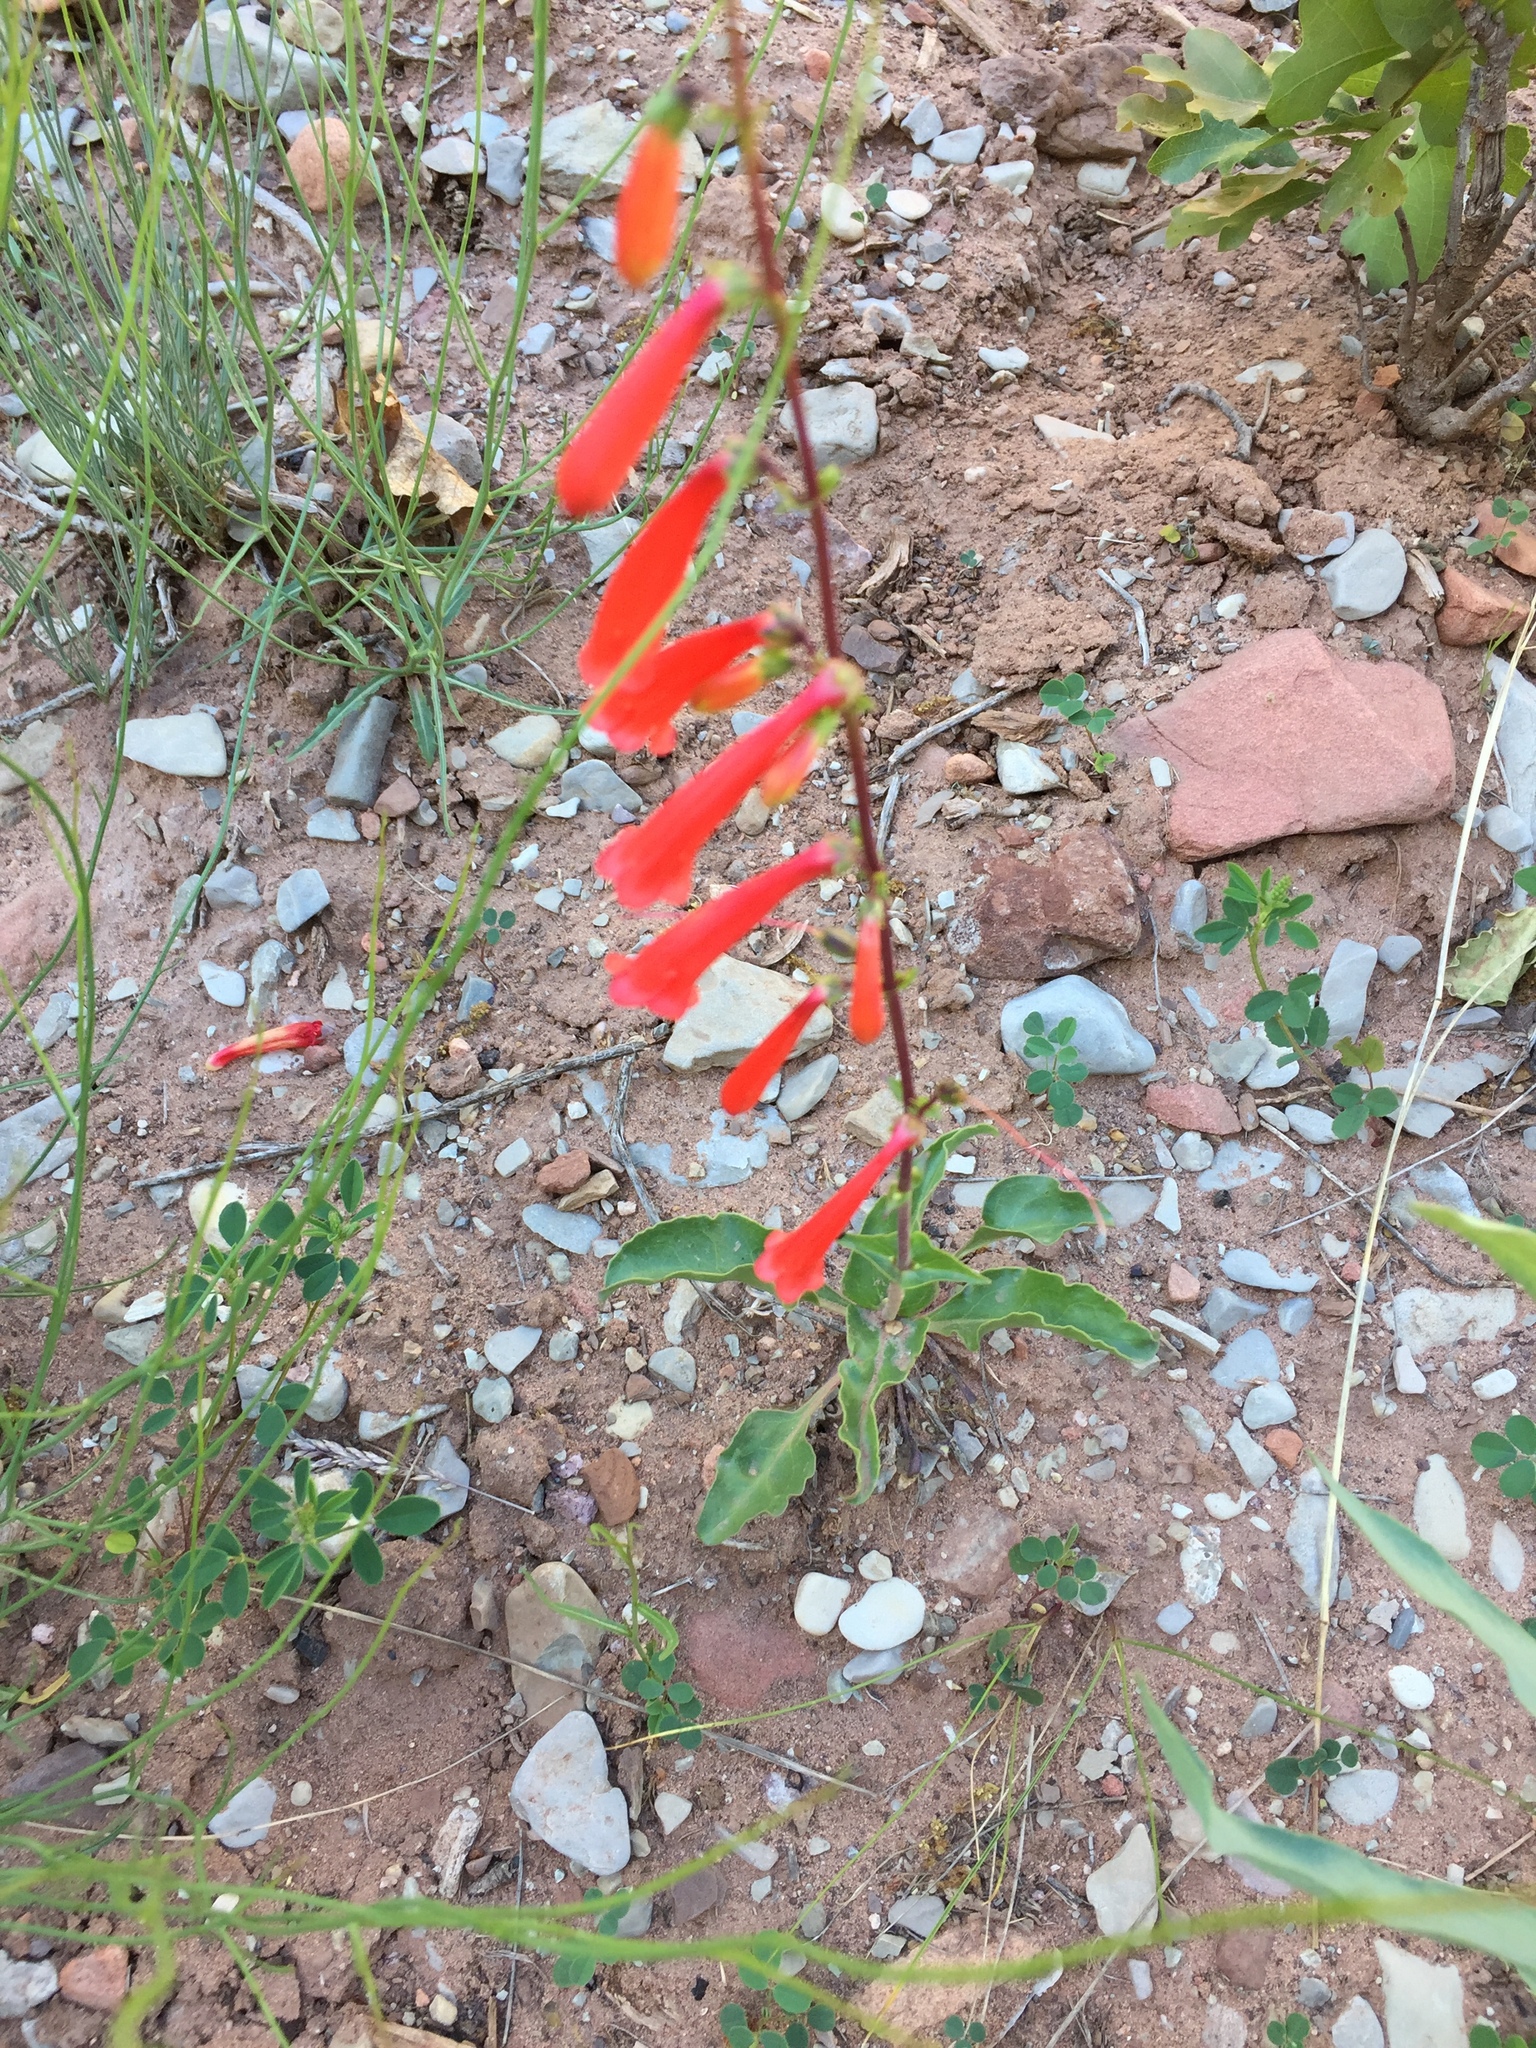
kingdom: Plantae
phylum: Tracheophyta
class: Magnoliopsida
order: Lamiales
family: Plantaginaceae
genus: Penstemon
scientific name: Penstemon eatonii
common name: Eaton's penstemon
